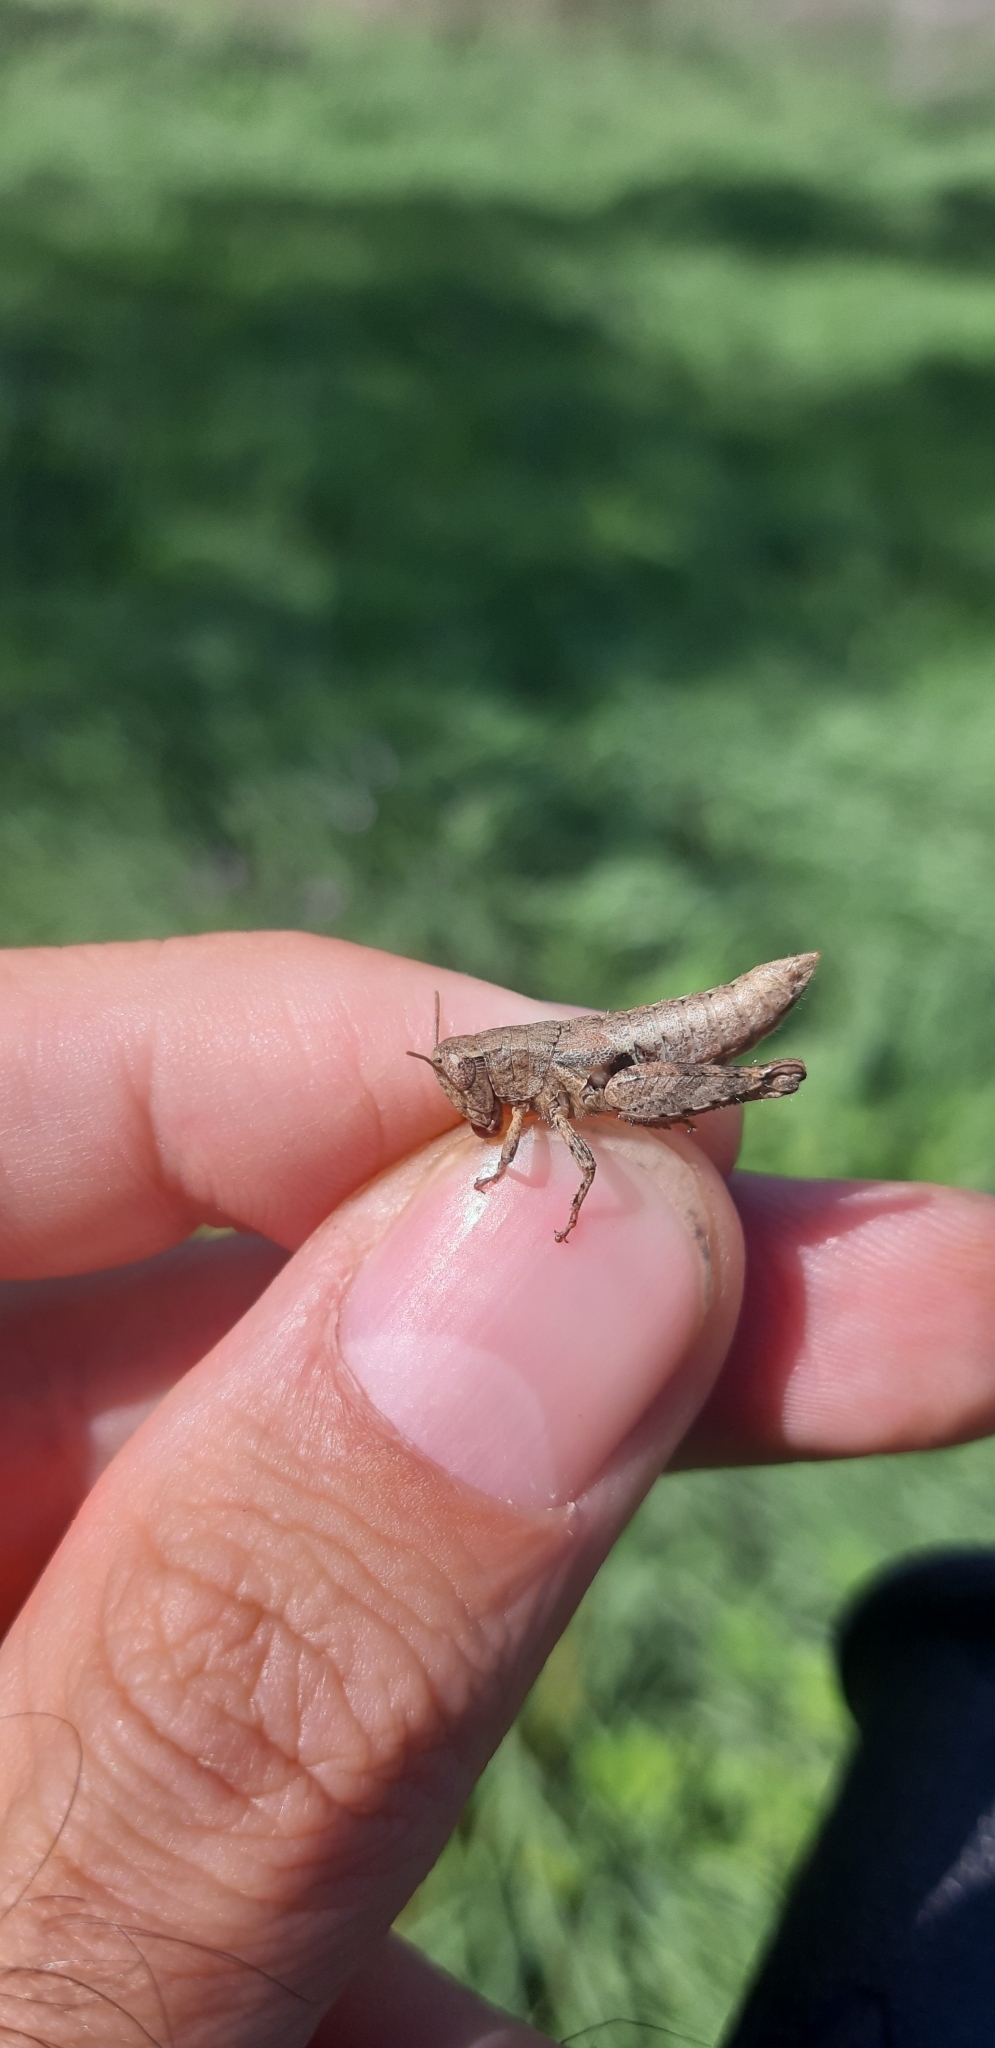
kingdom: Animalia
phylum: Arthropoda
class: Insecta
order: Orthoptera
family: Acrididae
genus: Pezotettix
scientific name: Pezotettix giornae
